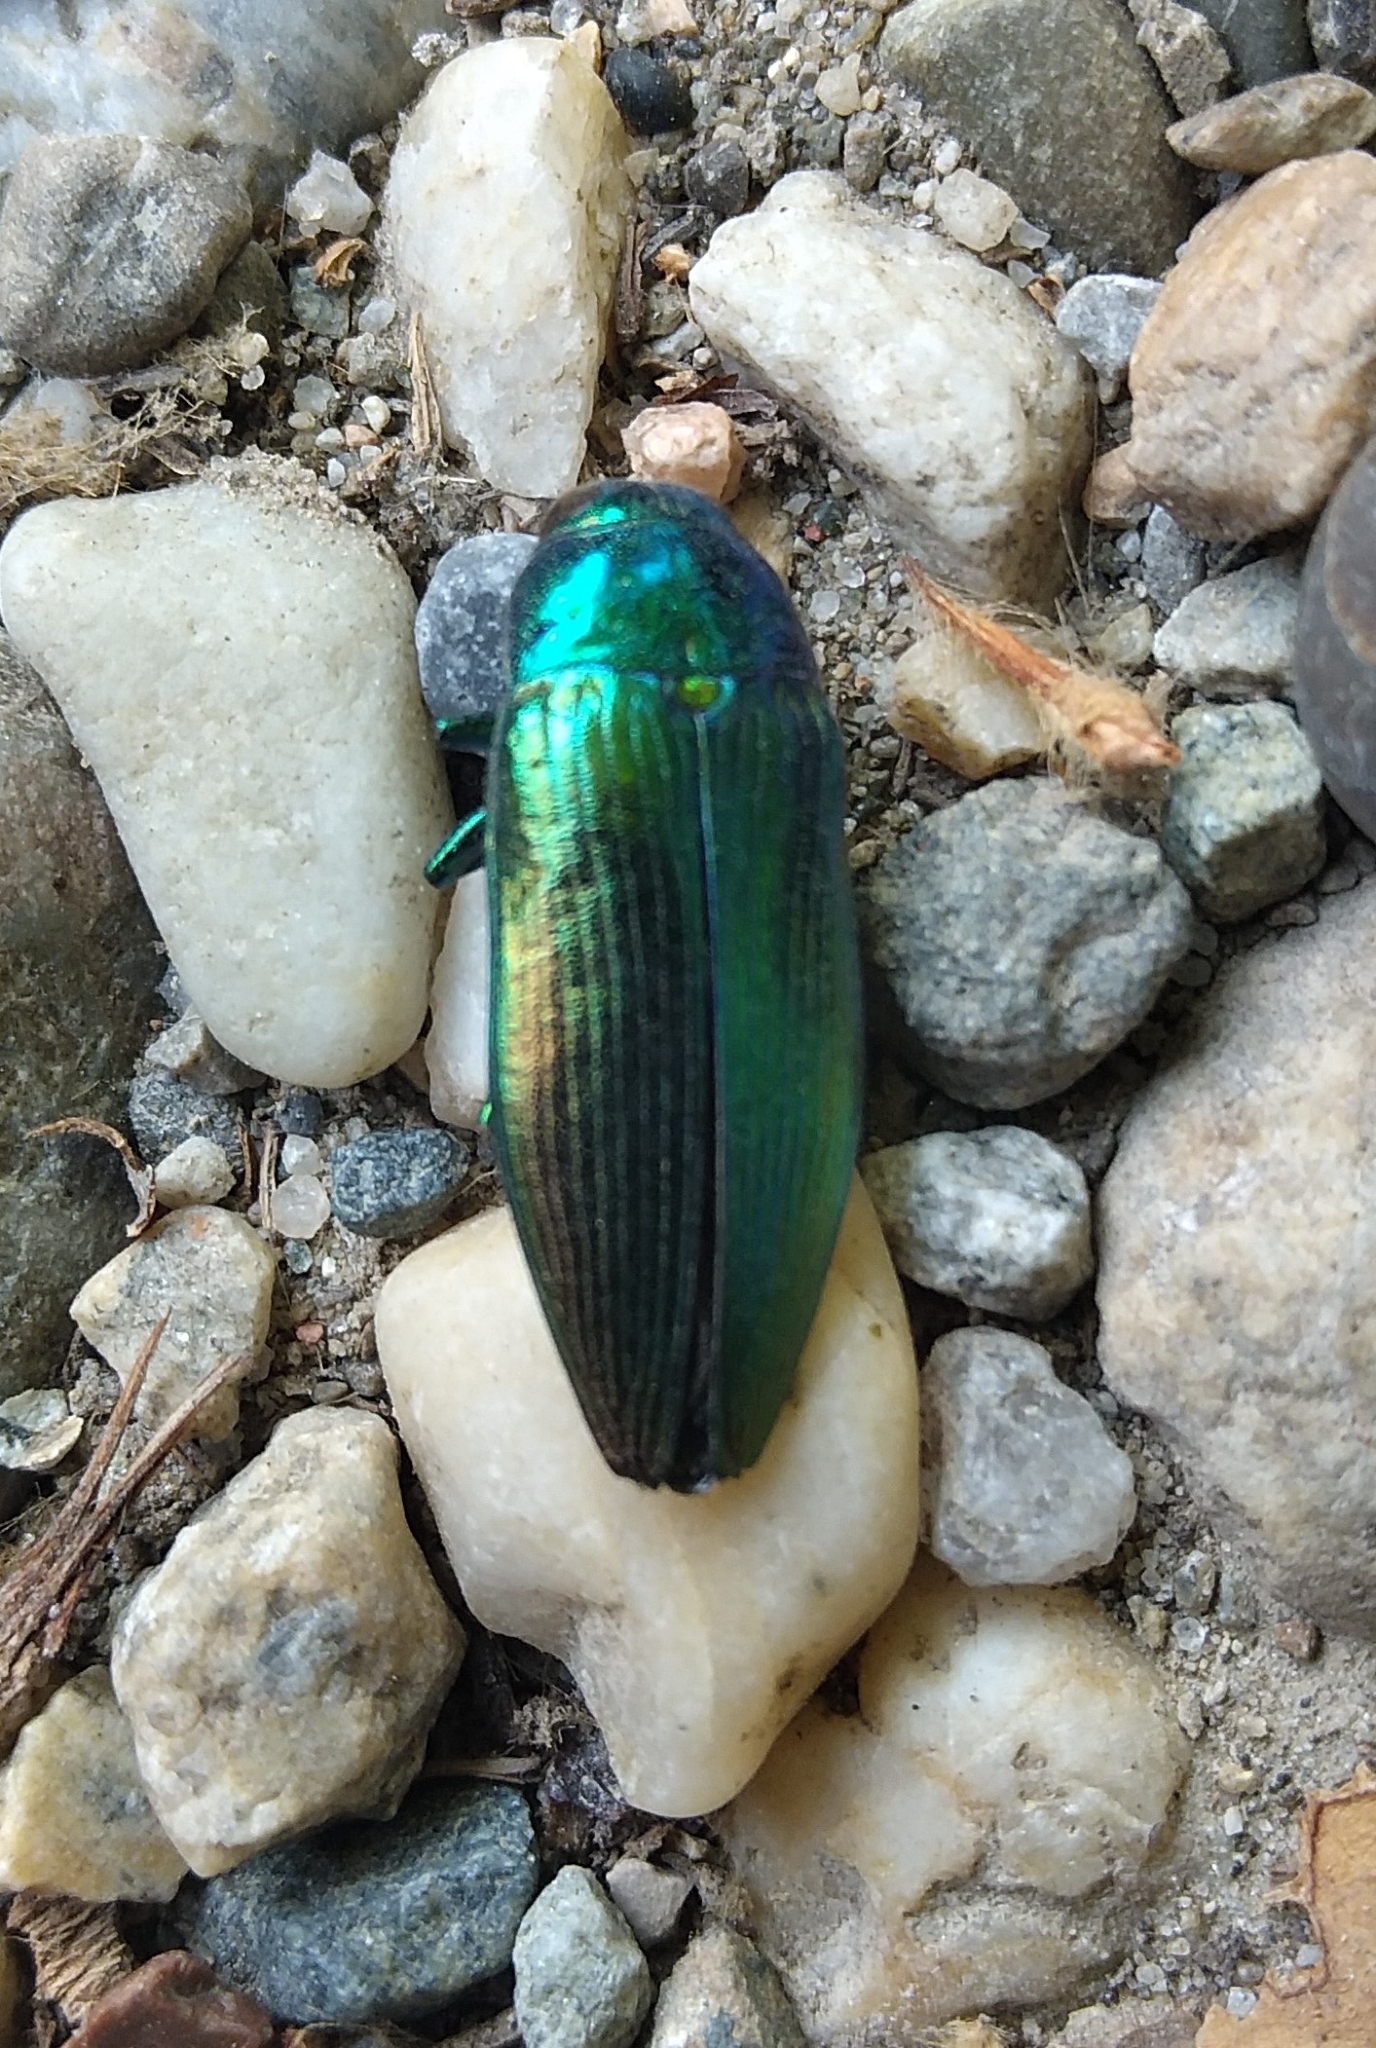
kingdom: Animalia
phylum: Arthropoda
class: Insecta
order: Coleoptera
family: Buprestidae
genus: Eurythyrea
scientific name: Eurythyrea micans
